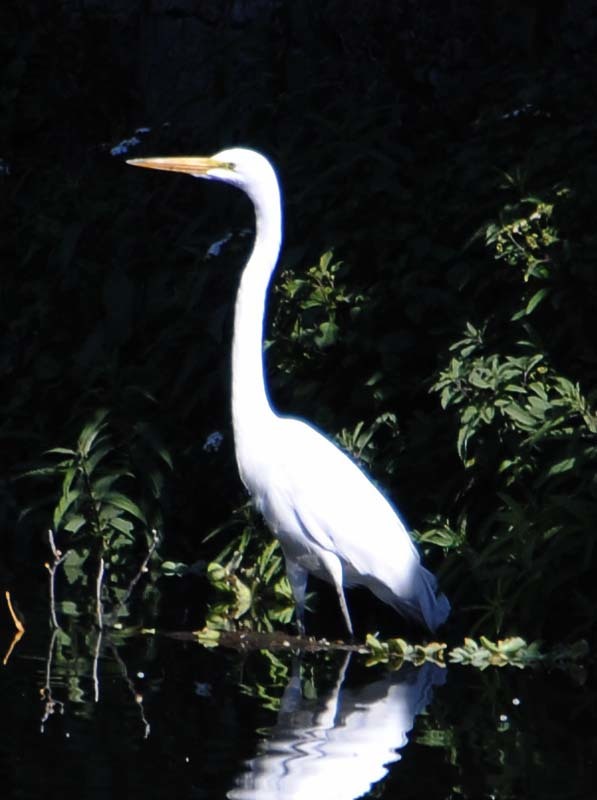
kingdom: Animalia
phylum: Chordata
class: Aves
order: Pelecaniformes
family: Ardeidae
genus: Ardea
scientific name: Ardea alba
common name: Great egret
